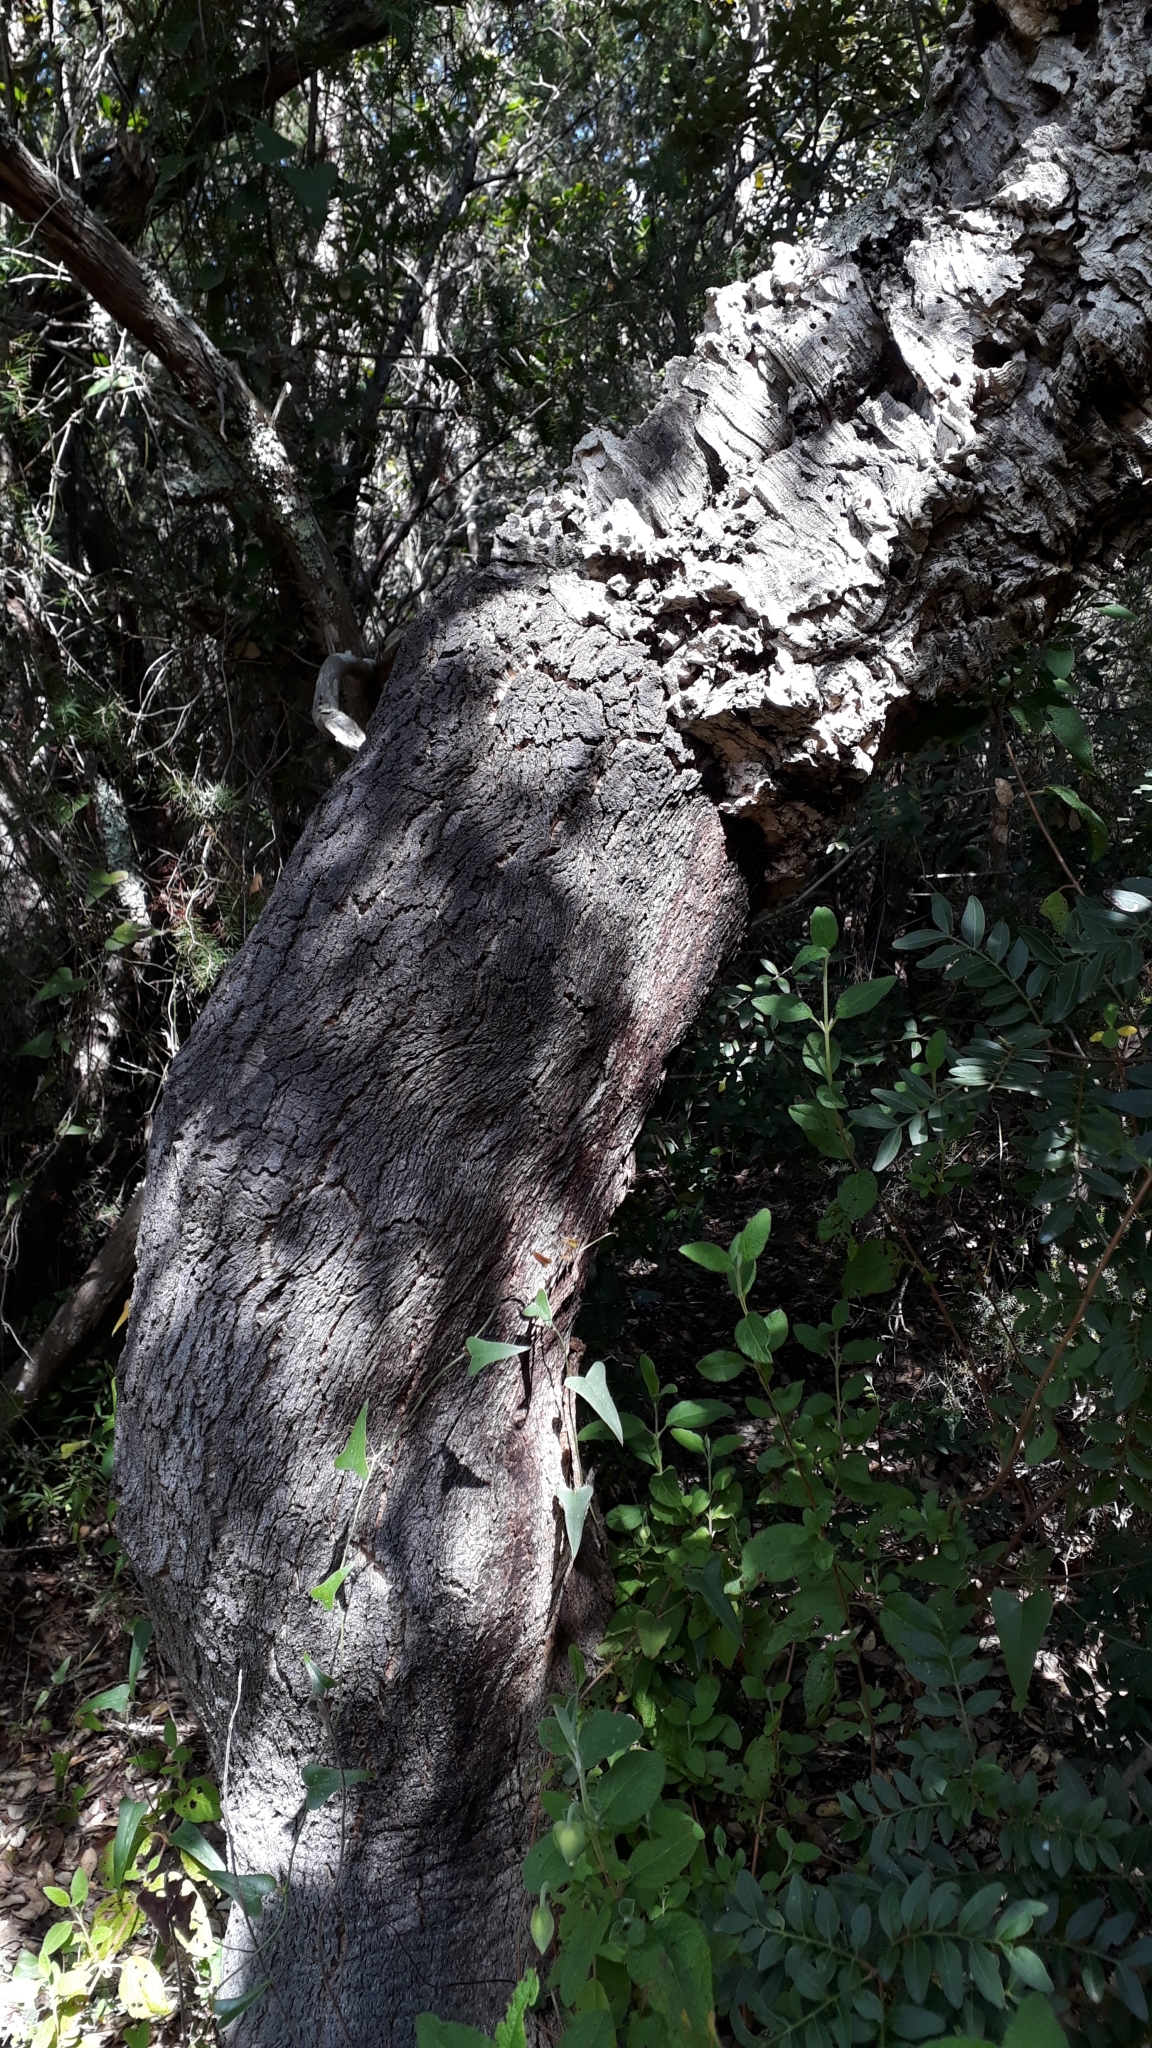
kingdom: Plantae
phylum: Tracheophyta
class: Magnoliopsida
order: Fagales
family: Fagaceae
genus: Quercus
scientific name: Quercus suber
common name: Cork oak
